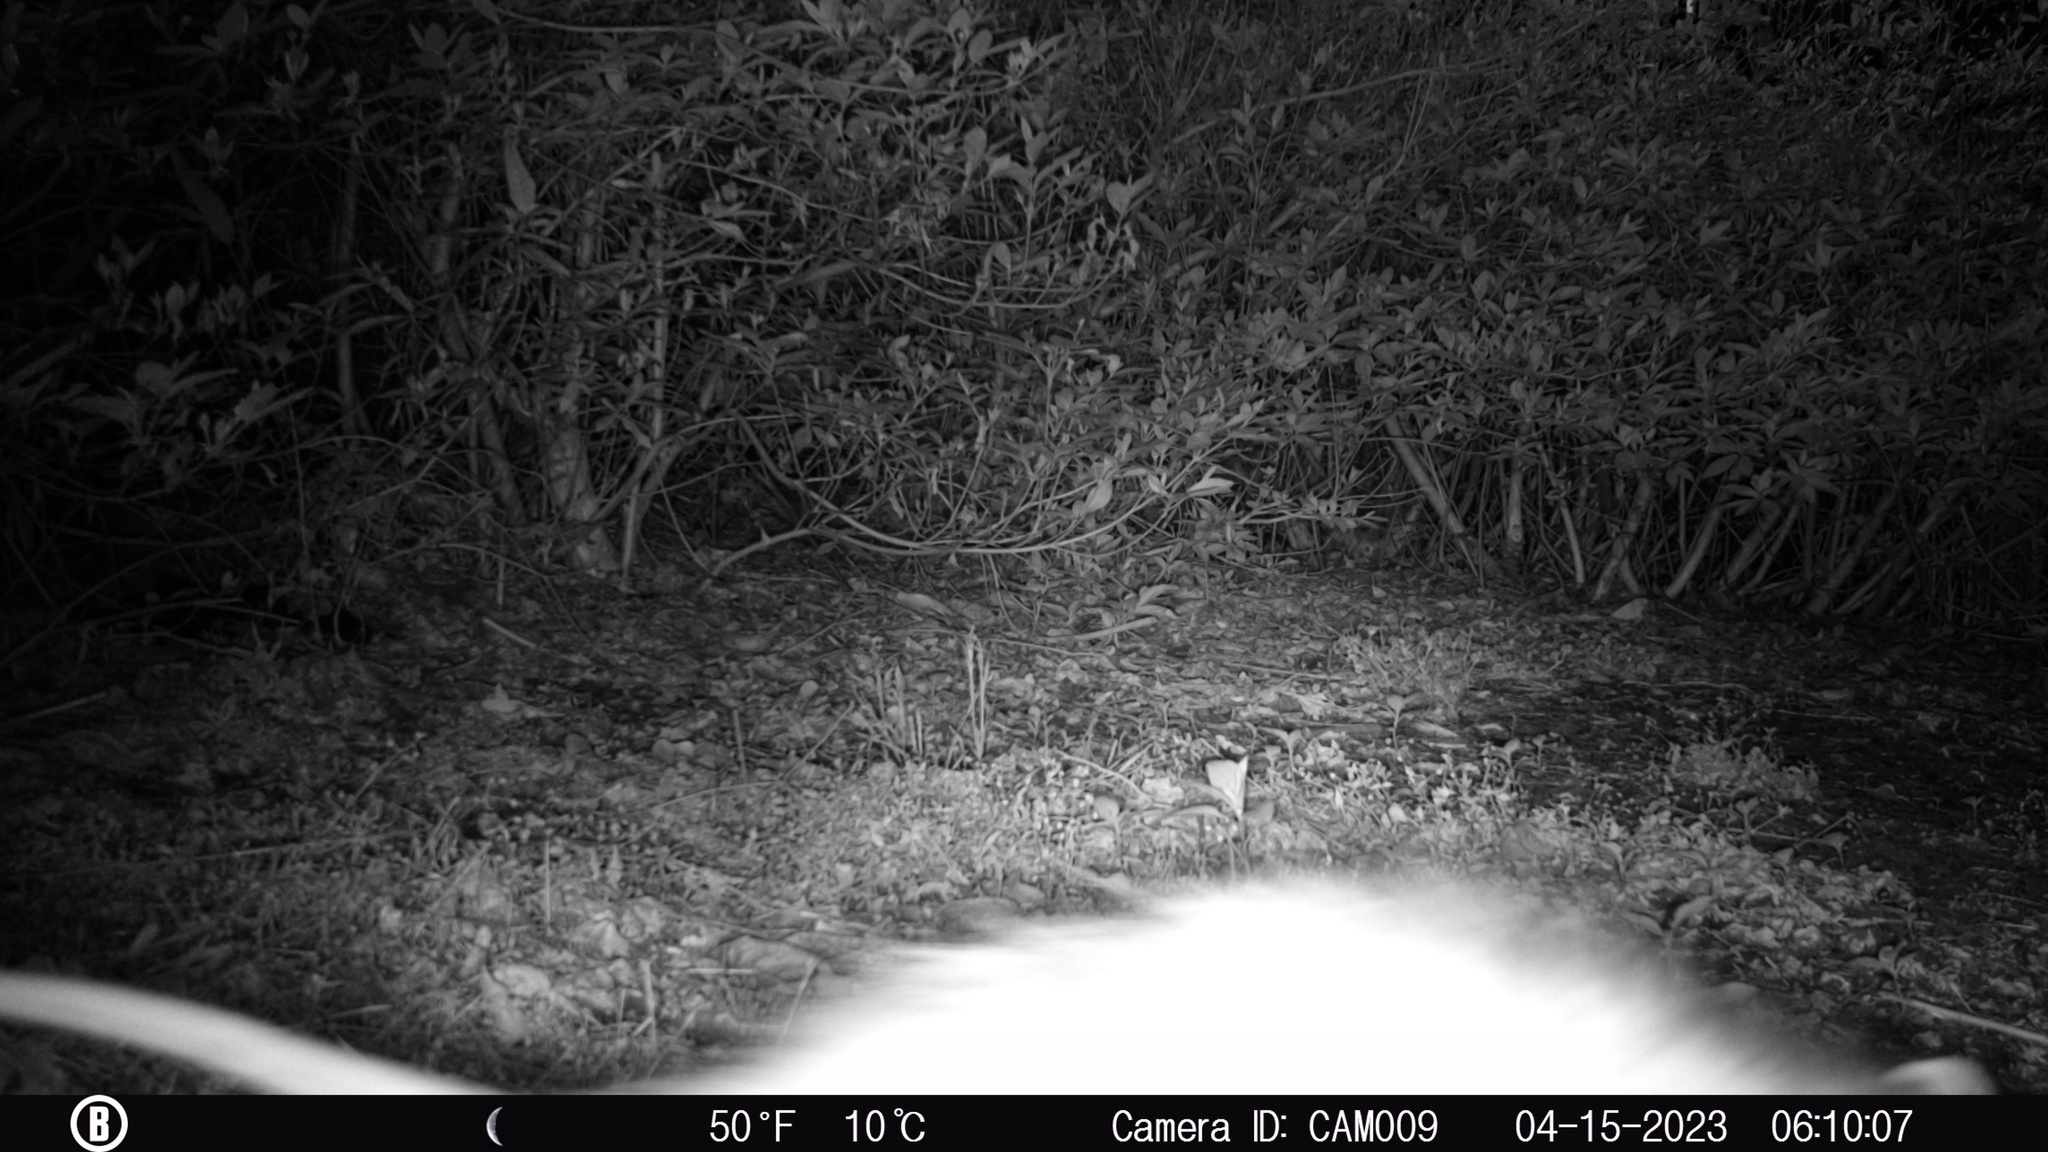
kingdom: Animalia
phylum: Chordata
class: Mammalia
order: Didelphimorphia
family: Didelphidae
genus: Didelphis
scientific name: Didelphis virginiana
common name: Virginia opossum
